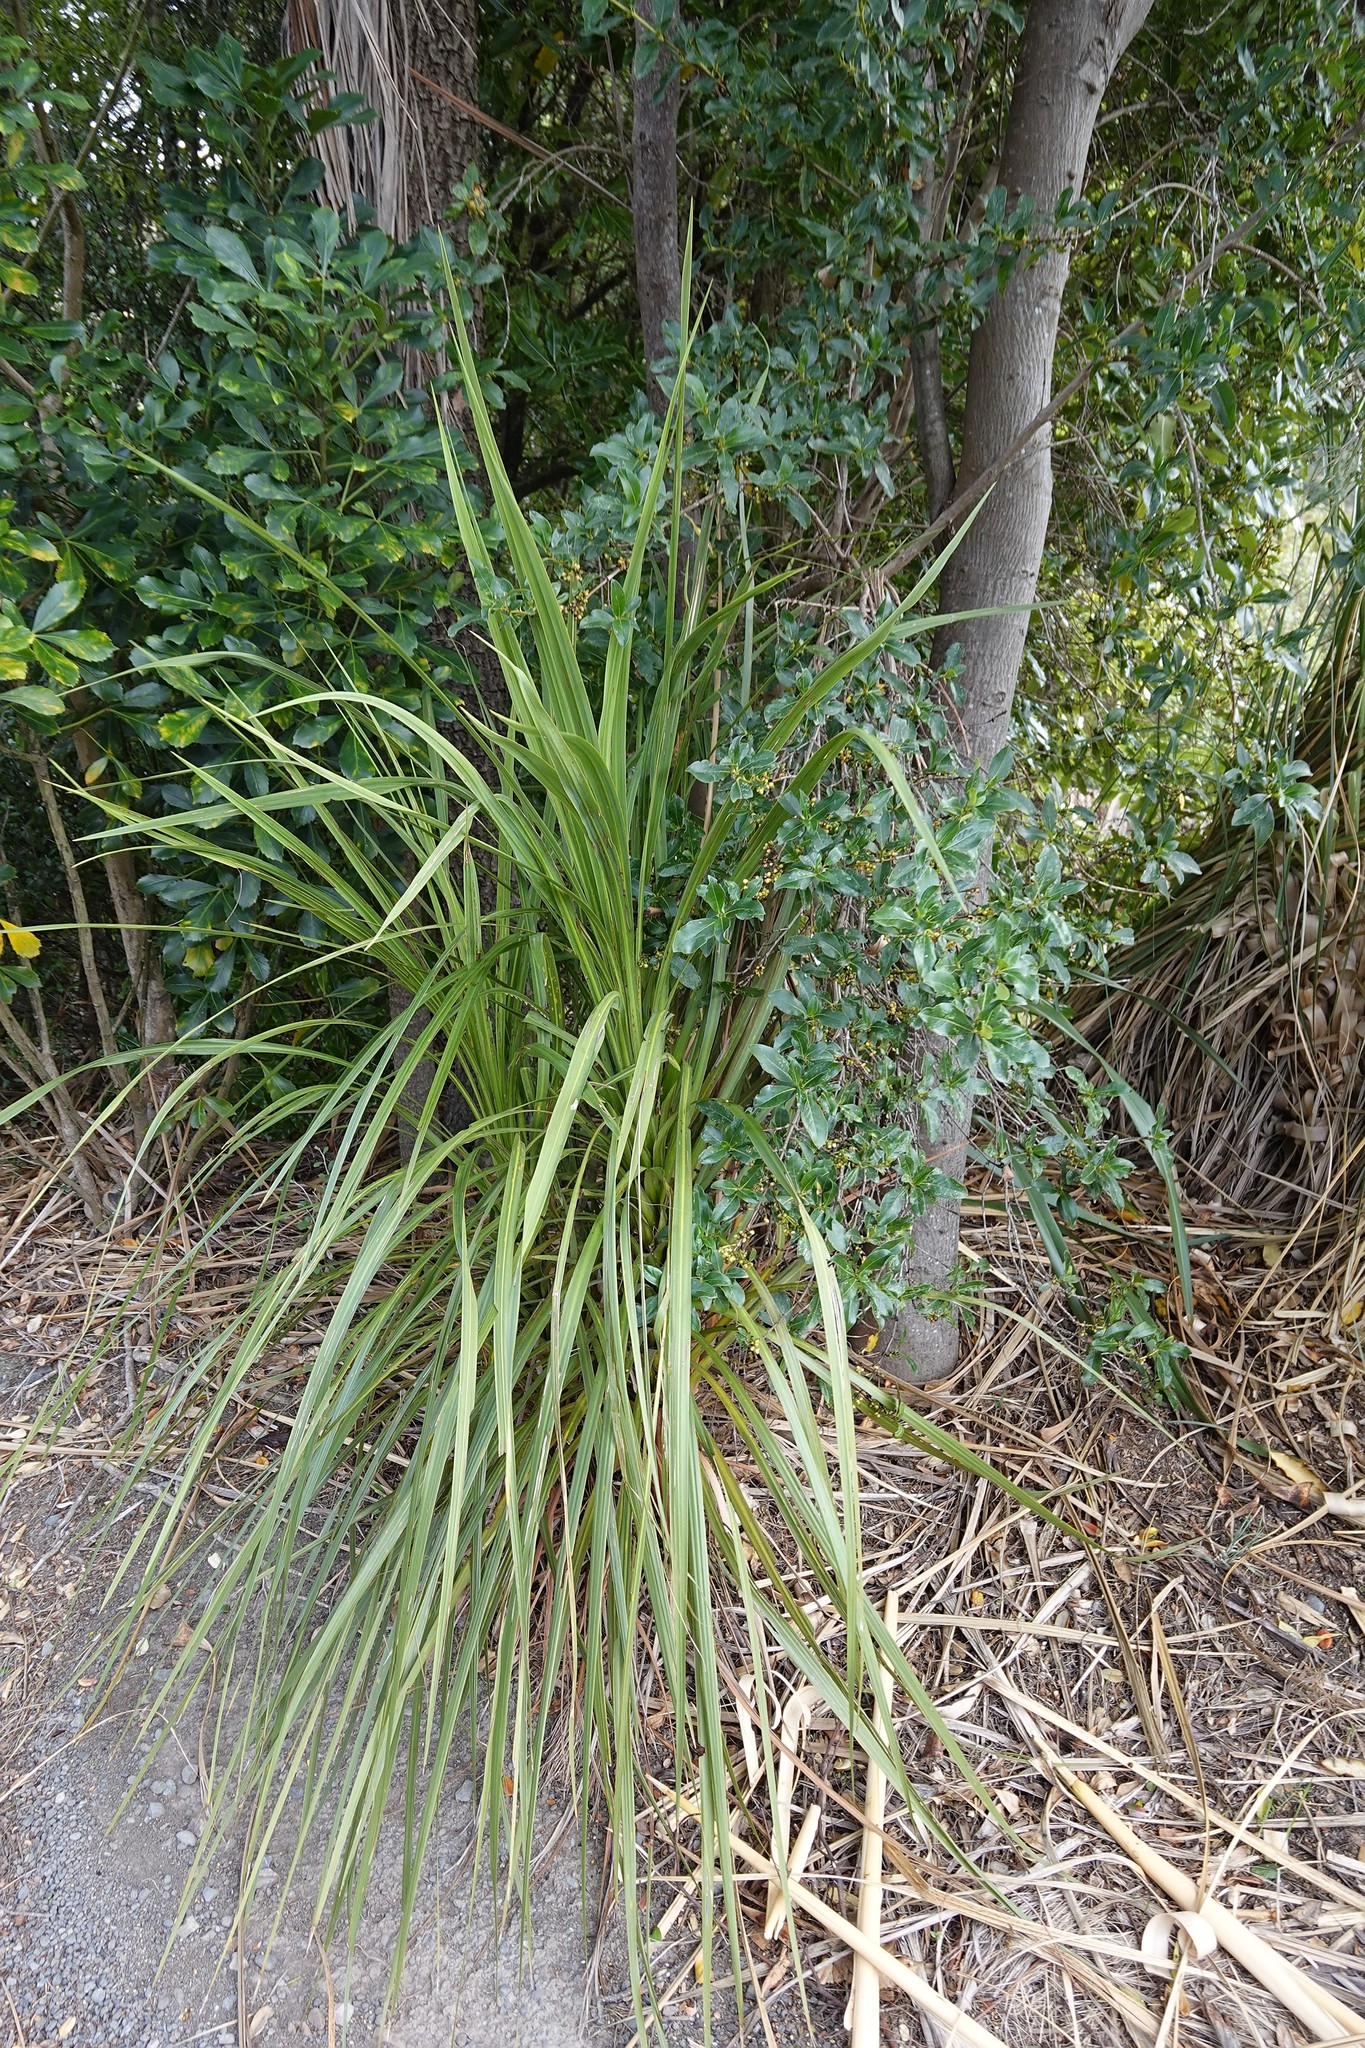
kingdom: Plantae
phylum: Tracheophyta
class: Liliopsida
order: Asparagales
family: Asparagaceae
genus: Cordyline
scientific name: Cordyline australis
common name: Cabbage-palm
